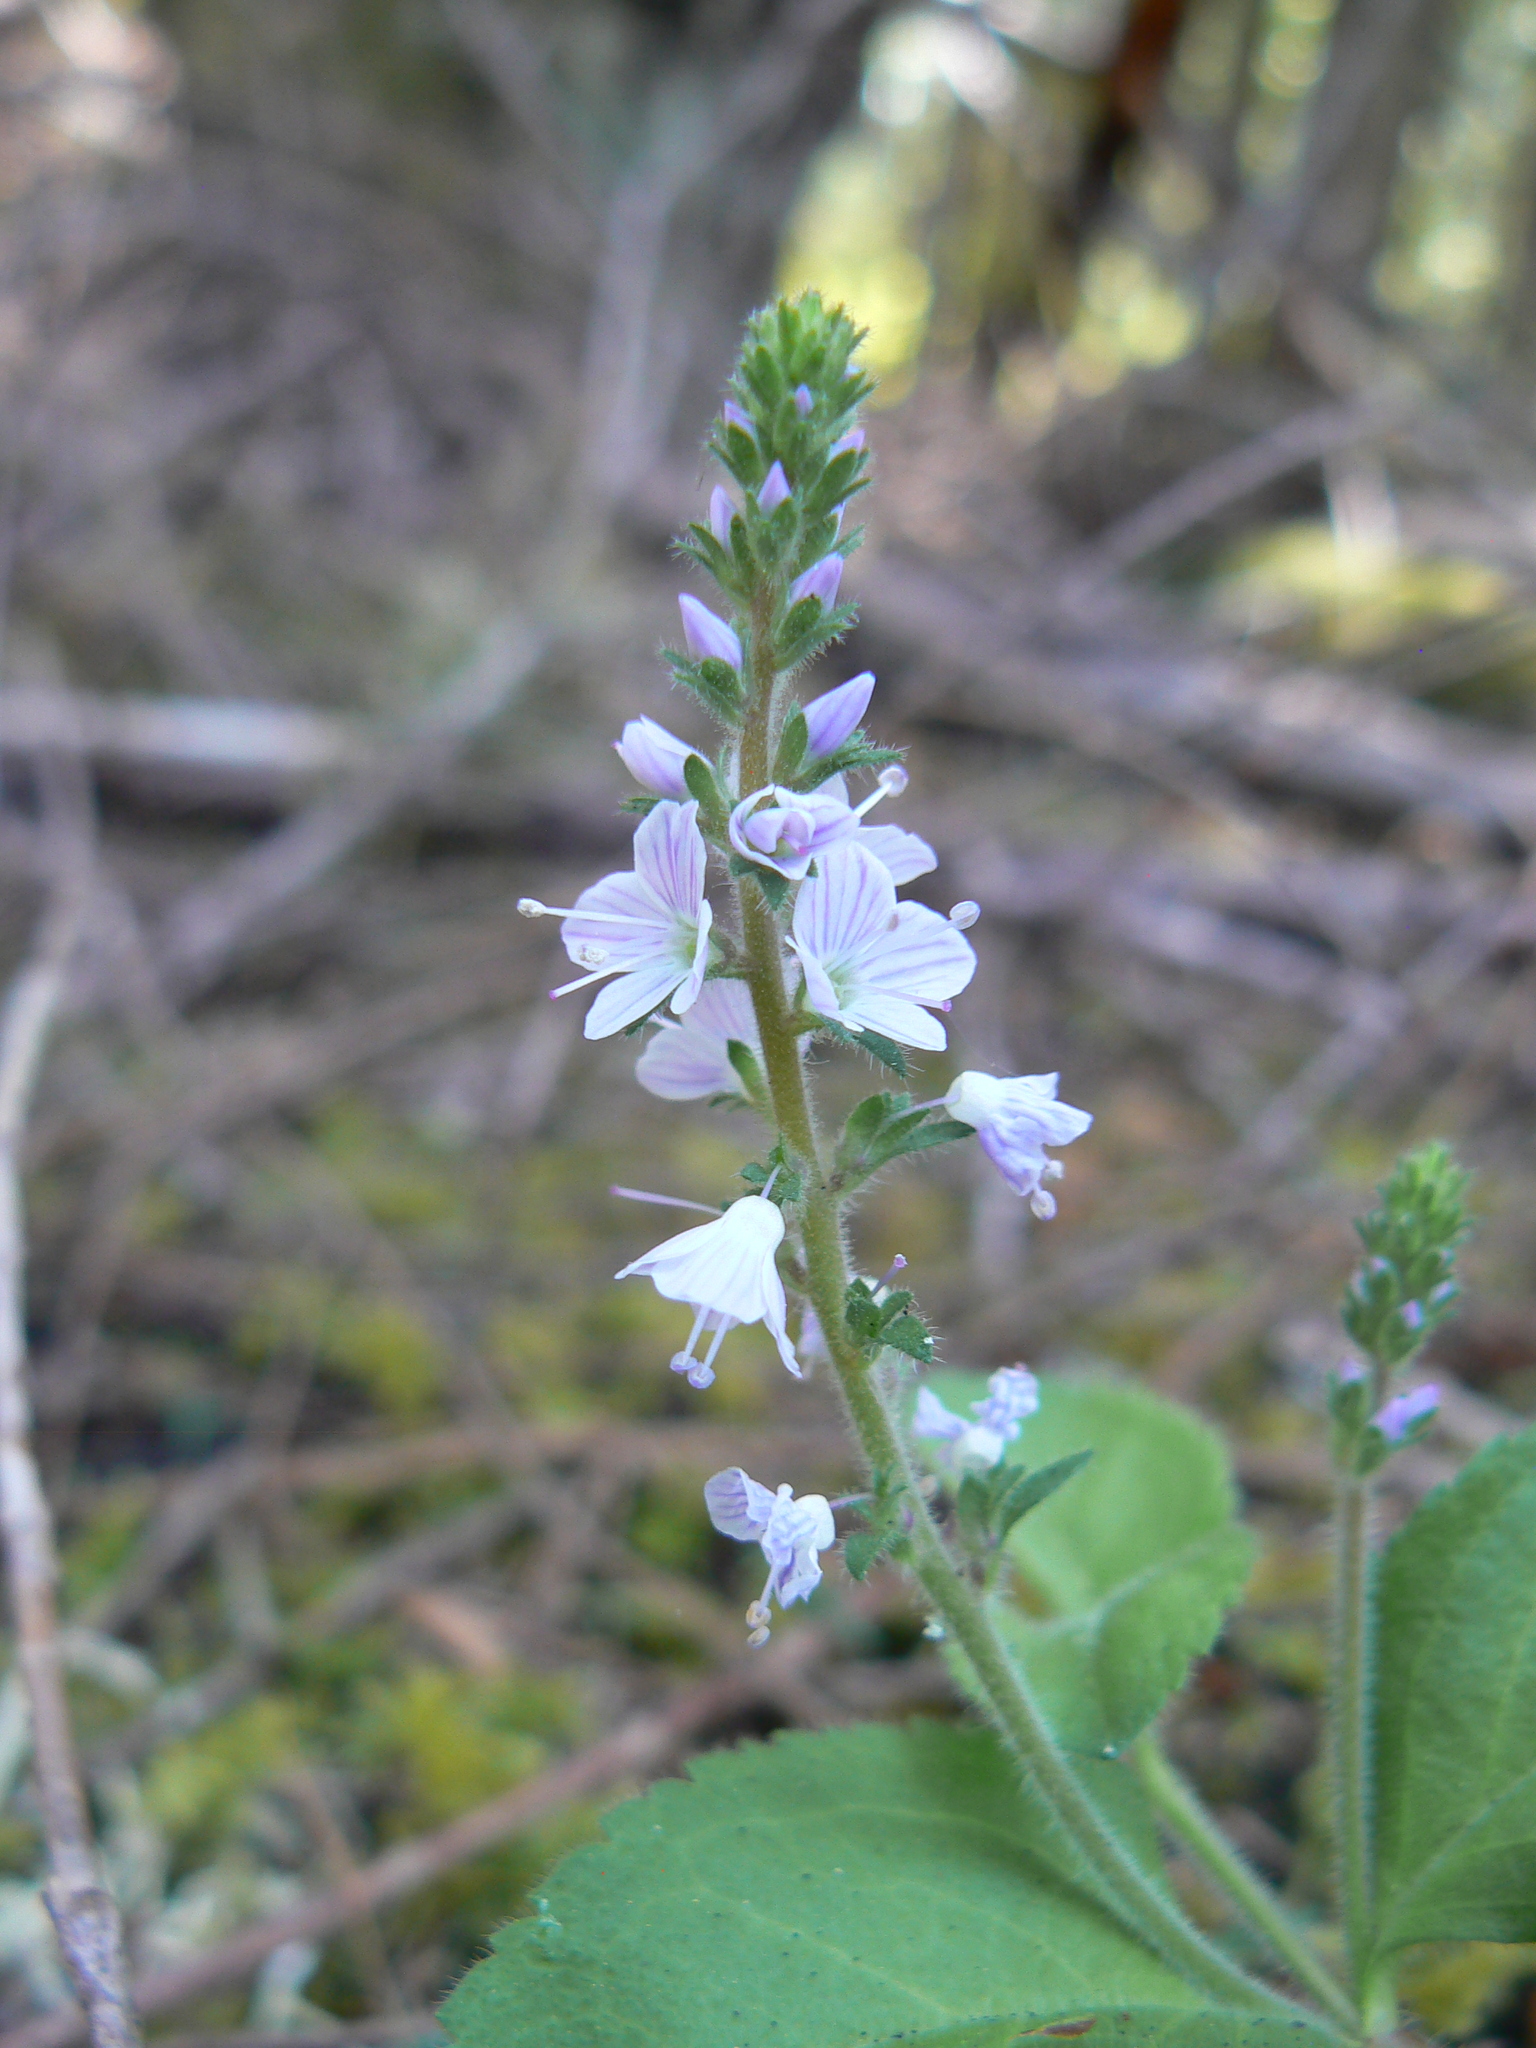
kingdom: Plantae
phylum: Tracheophyta
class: Magnoliopsida
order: Lamiales
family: Plantaginaceae
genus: Veronica
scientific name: Veronica officinalis
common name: Common speedwell
